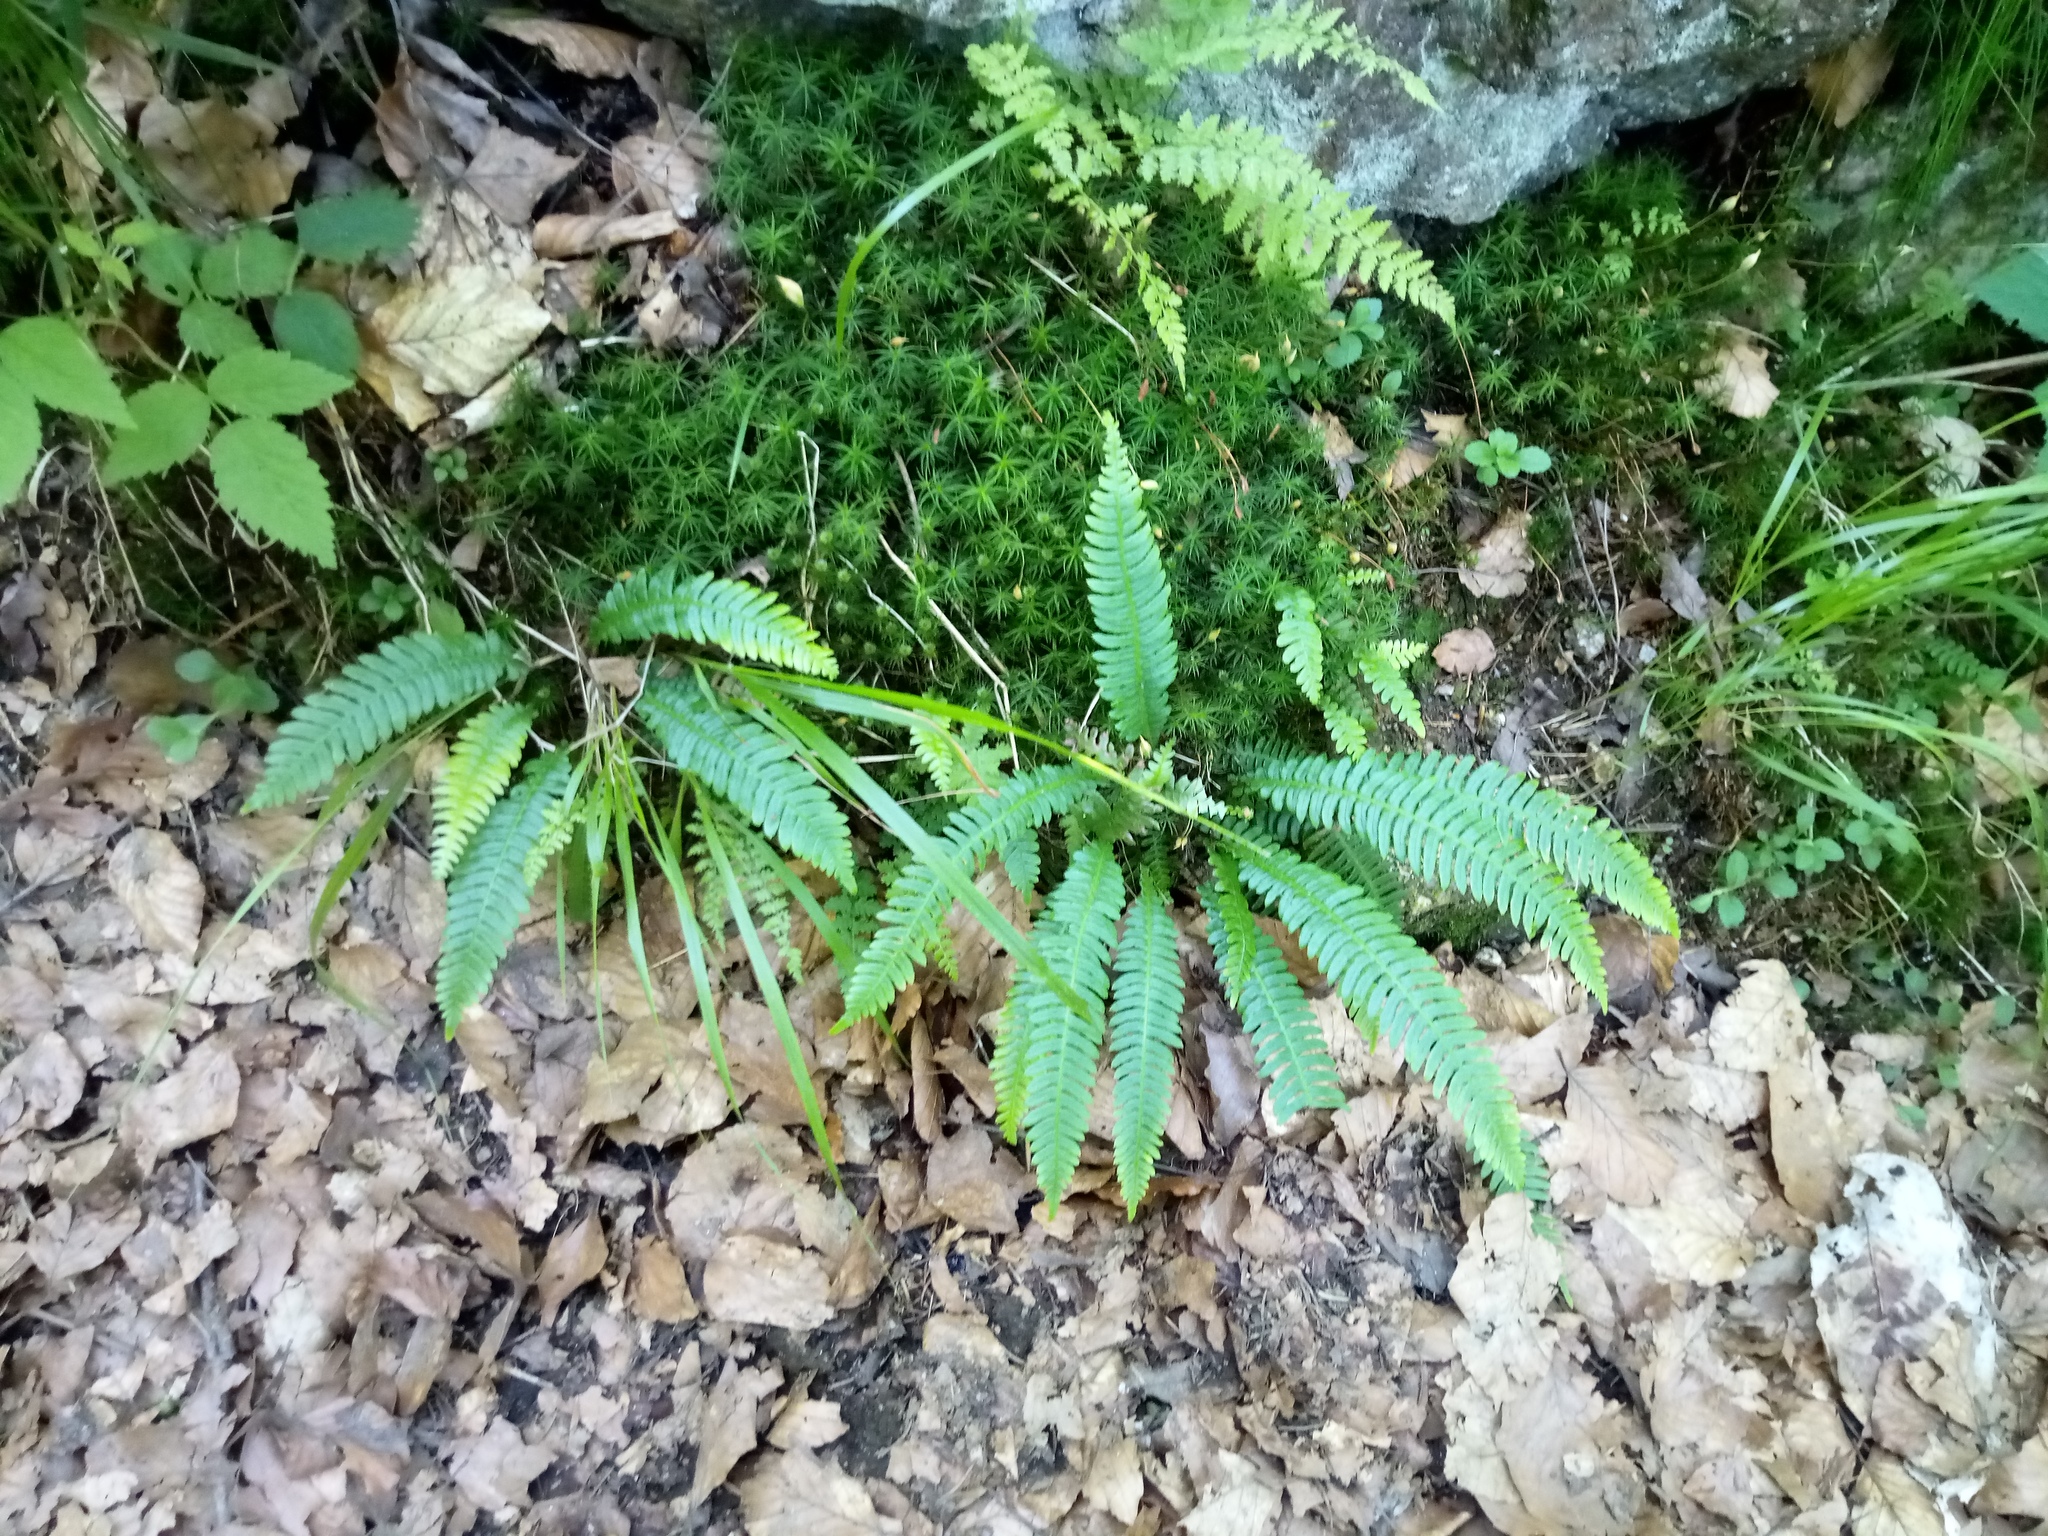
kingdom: Plantae
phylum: Tracheophyta
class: Polypodiopsida
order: Polypodiales
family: Blechnaceae
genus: Struthiopteris
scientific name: Struthiopteris spicant
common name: Deer fern
